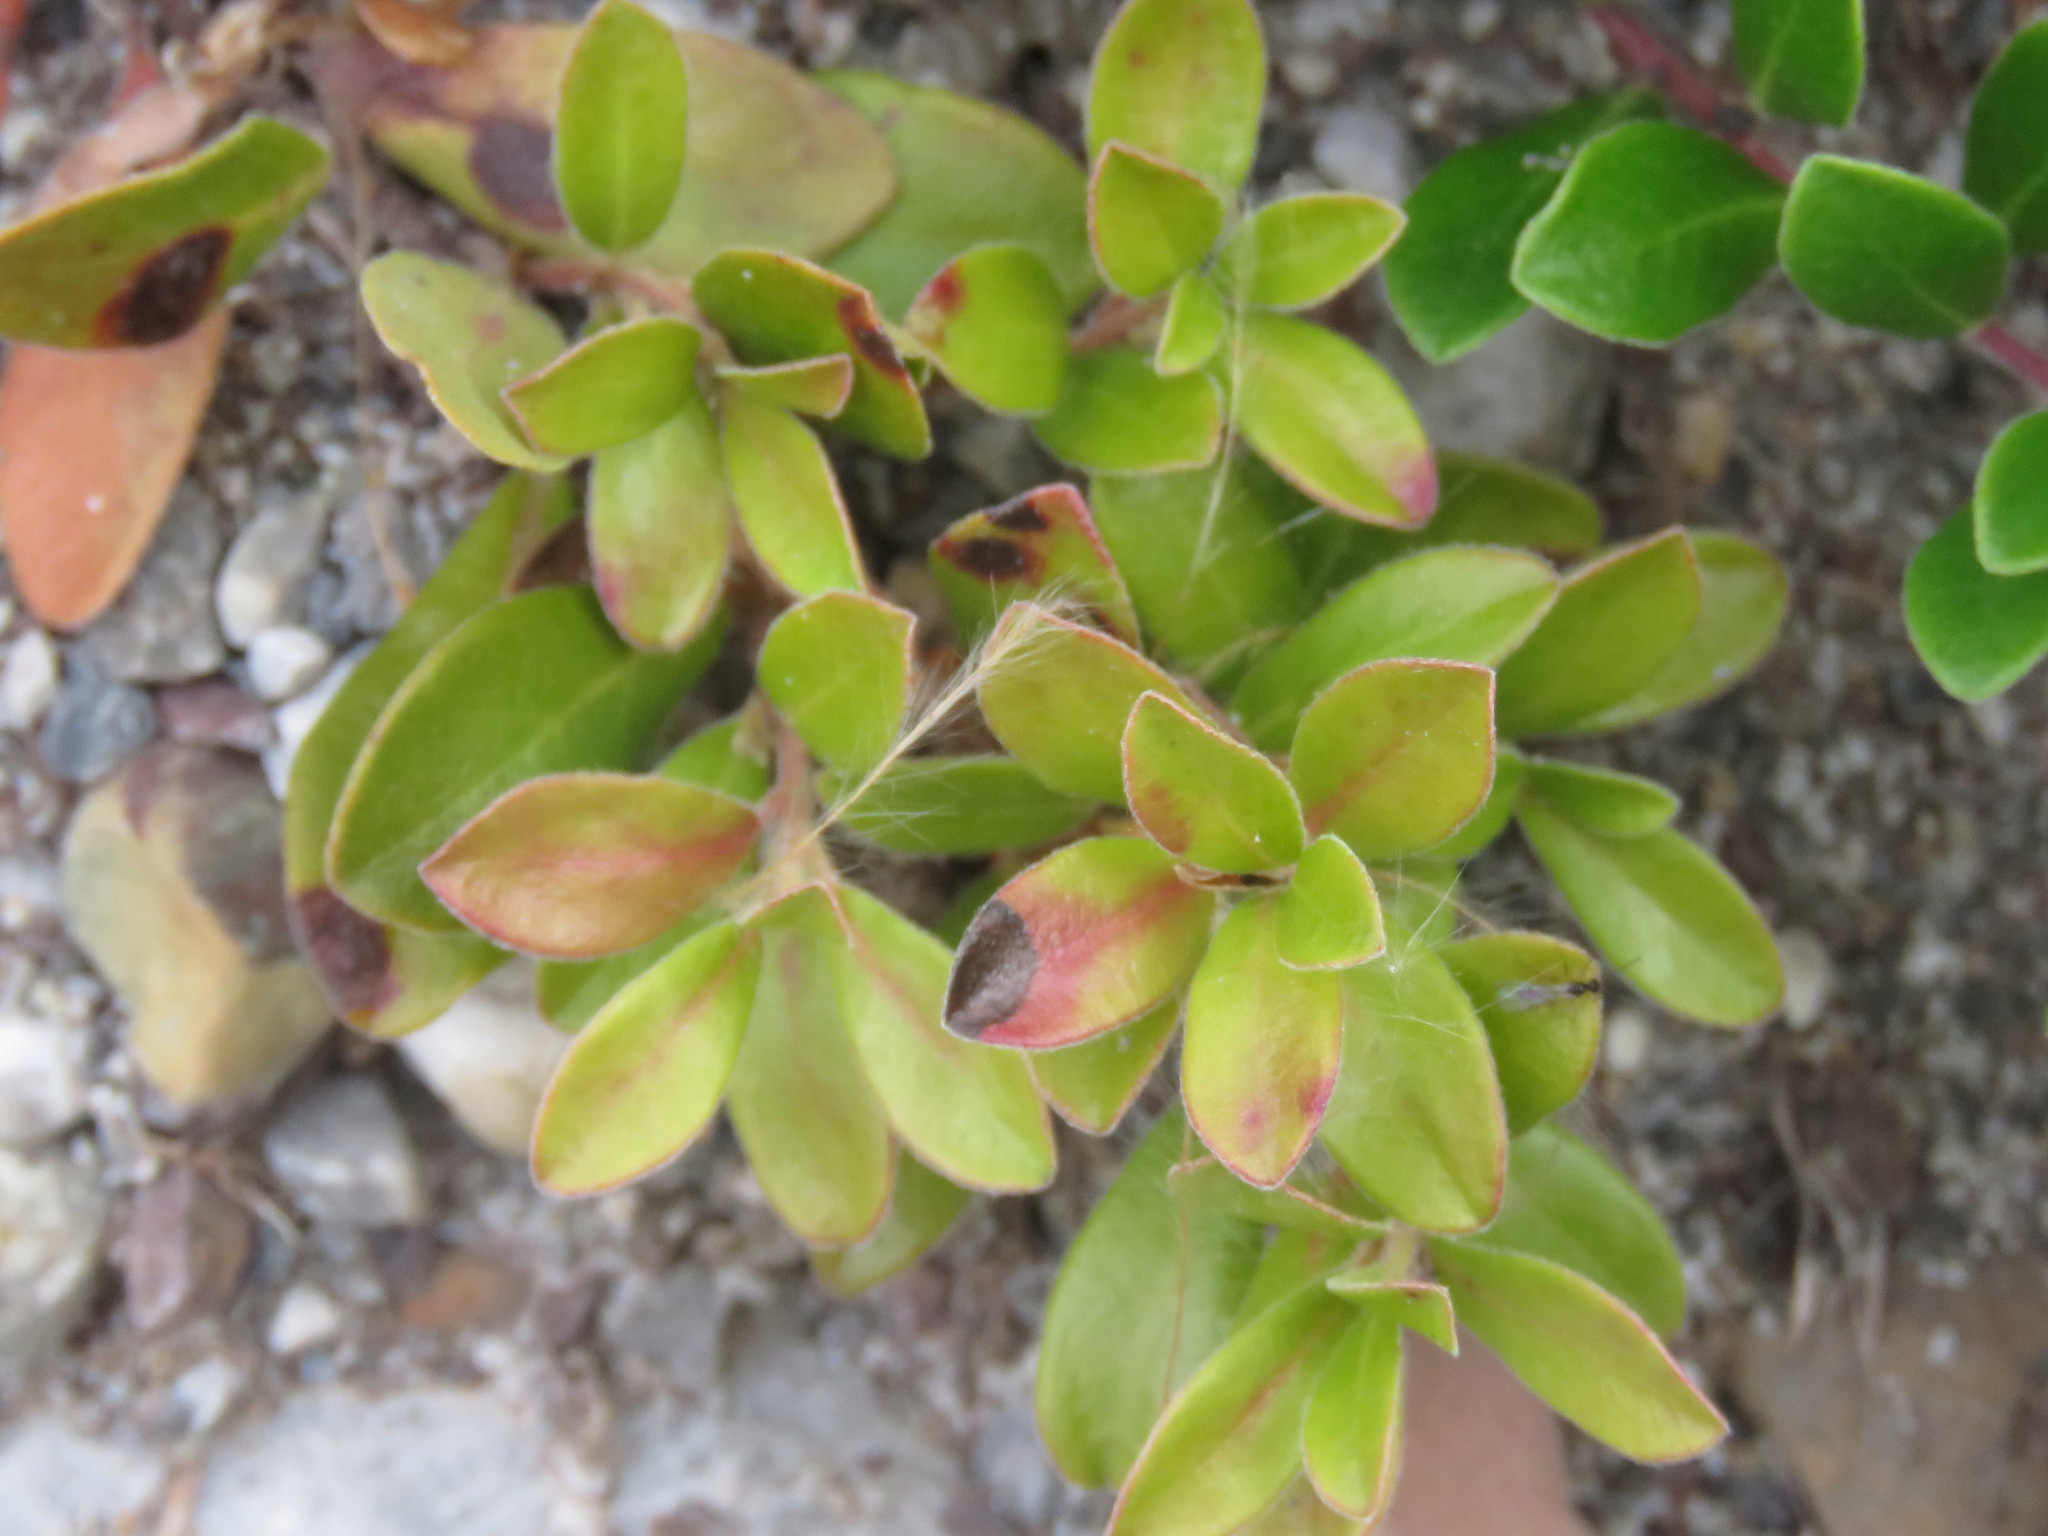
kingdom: Plantae
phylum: Tracheophyta
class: Magnoliopsida
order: Ericales
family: Ericaceae
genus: Arctostaphylos
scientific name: Arctostaphylos uva-ursi
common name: Bearberry
